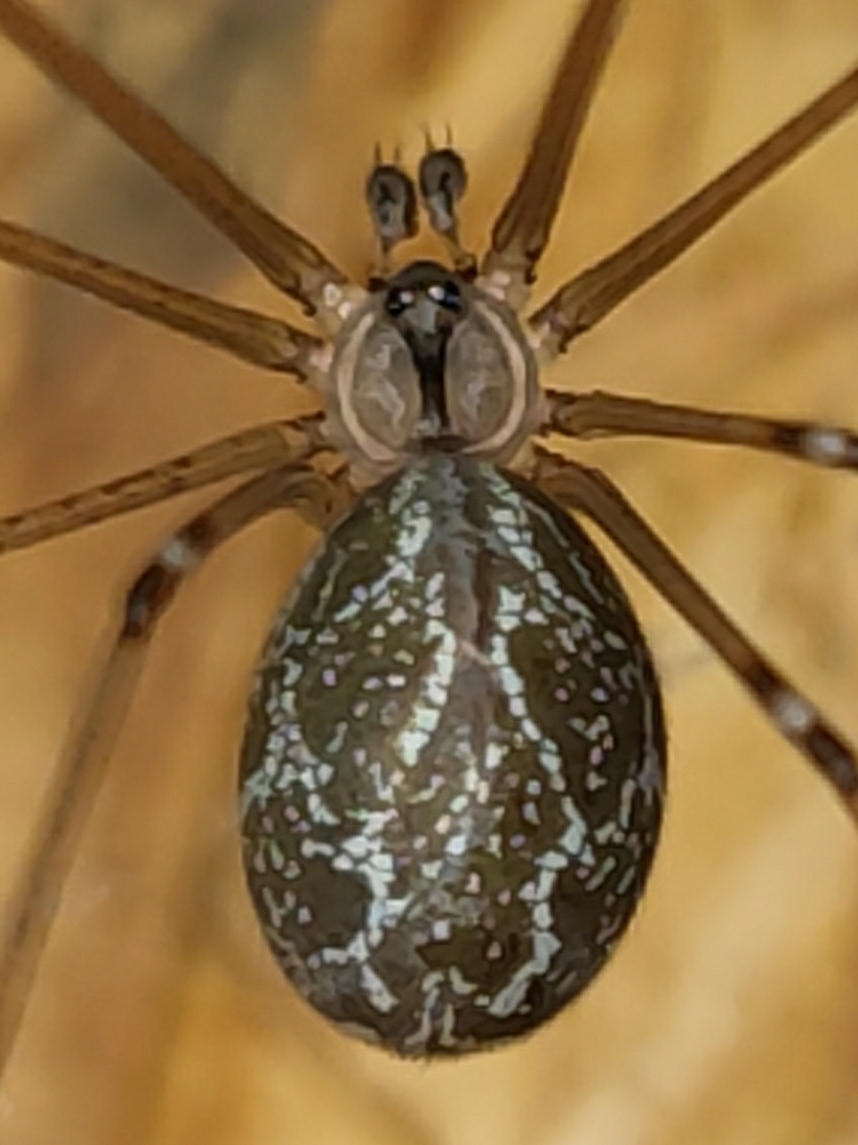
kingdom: Animalia
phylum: Arthropoda
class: Arachnida
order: Araneae
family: Pholcidae
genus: Holocnemus
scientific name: Holocnemus pluchei
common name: Marbled cellar spider
